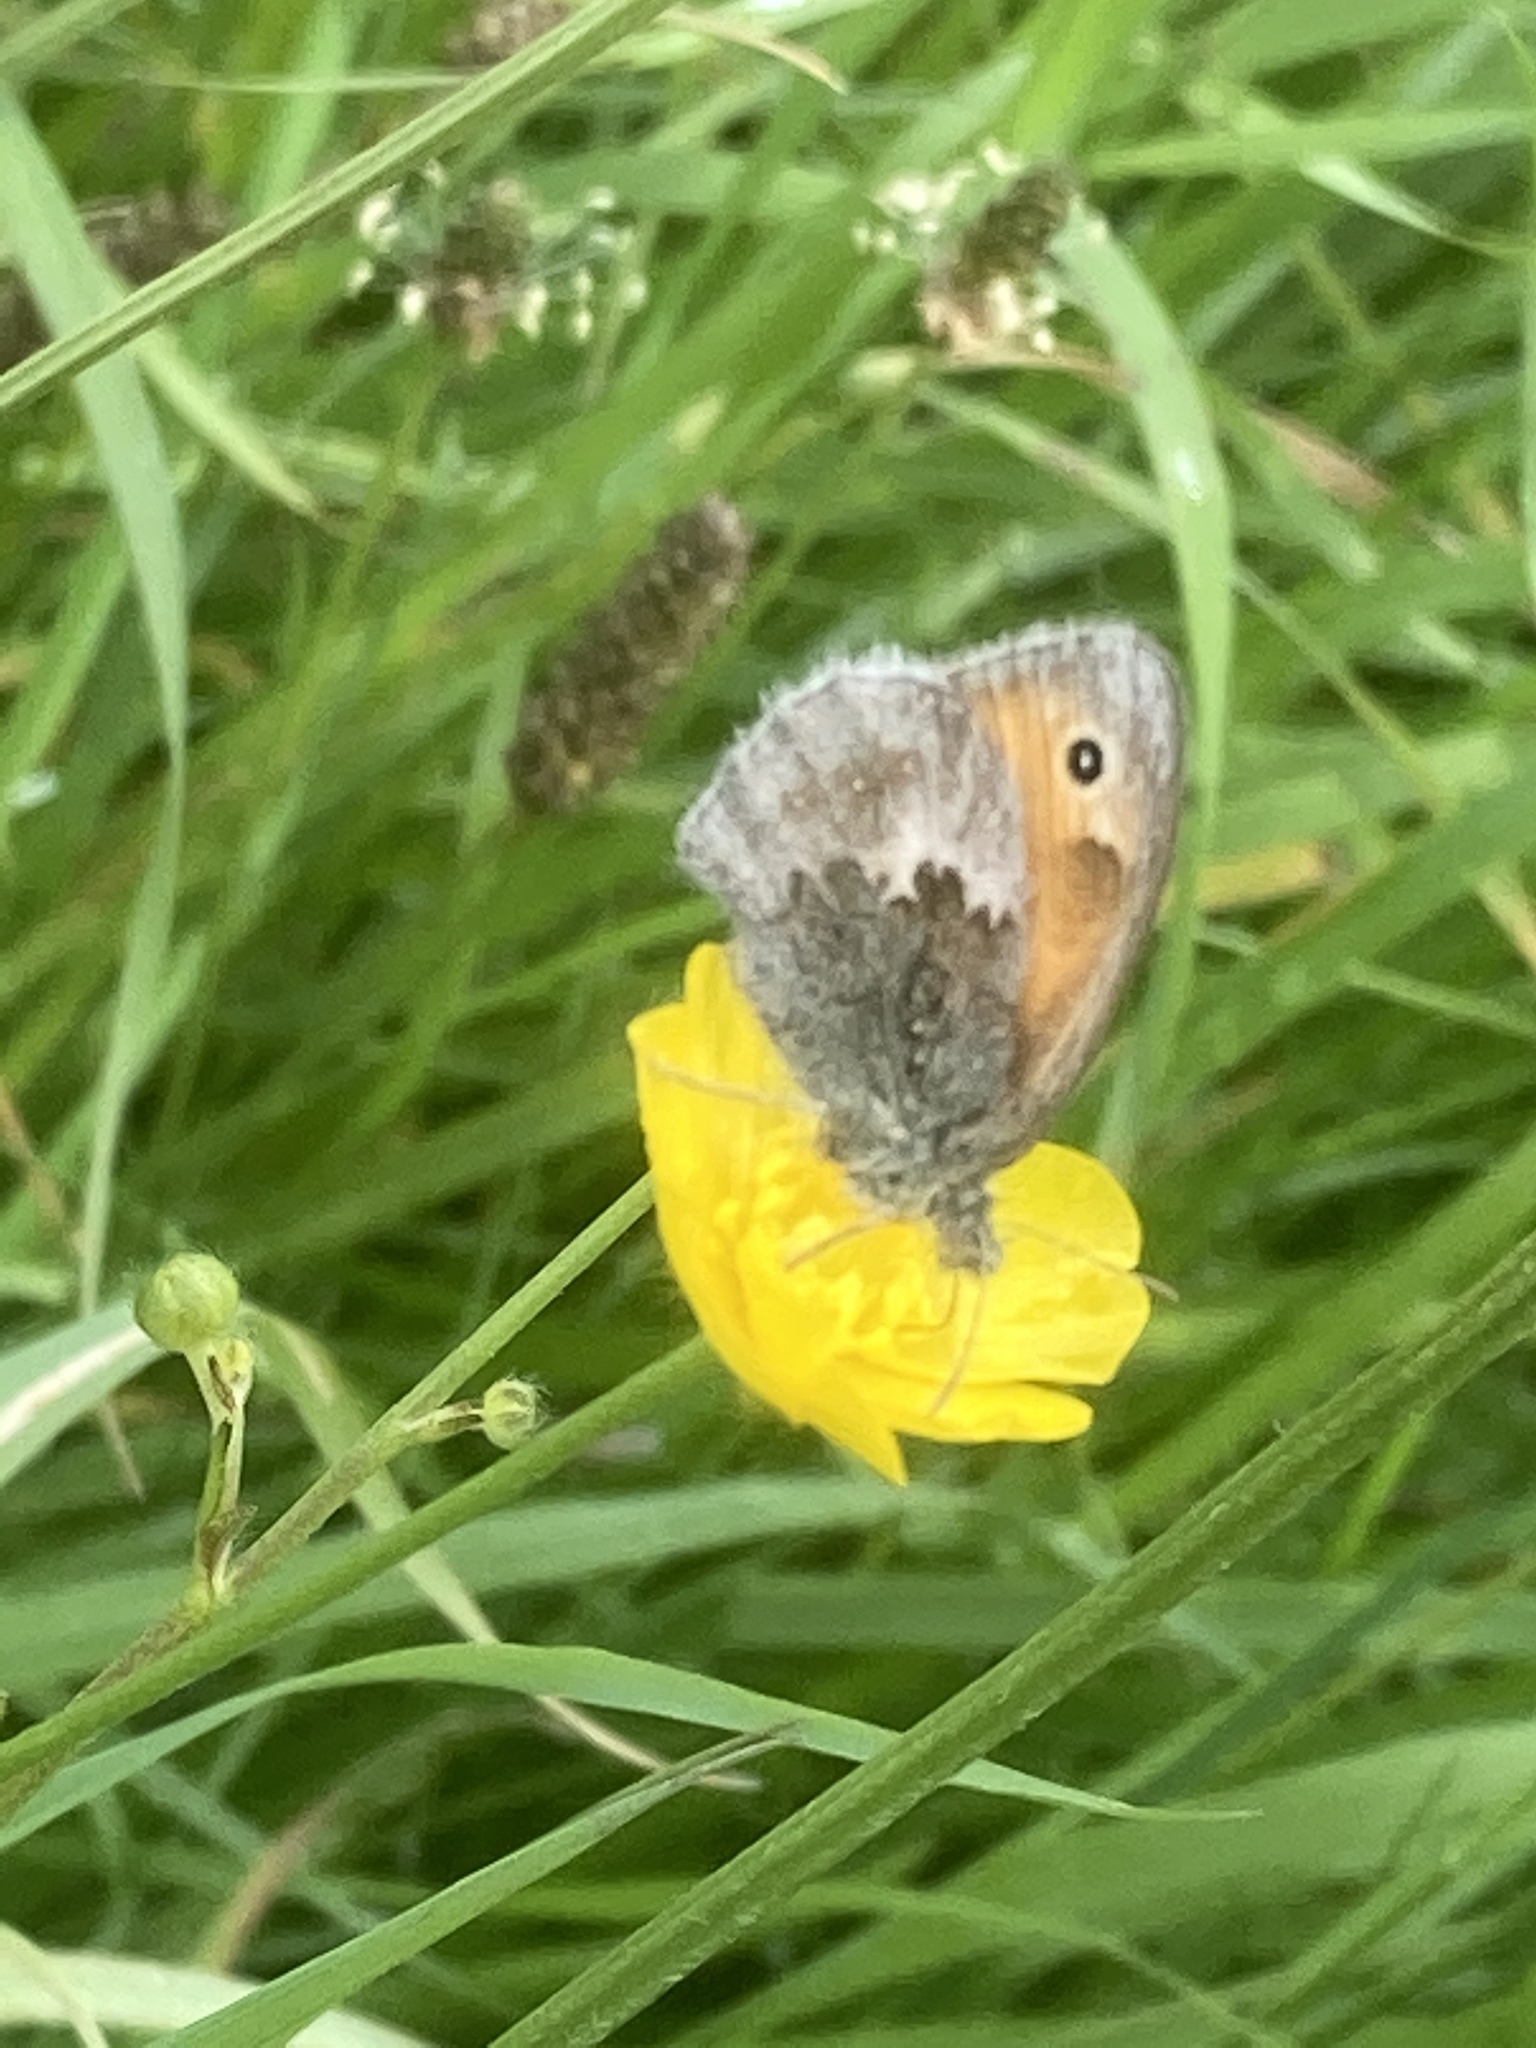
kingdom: Animalia
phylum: Arthropoda
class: Insecta
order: Lepidoptera
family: Nymphalidae
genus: Coenonympha
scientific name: Coenonympha pamphilus
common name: Small heath
